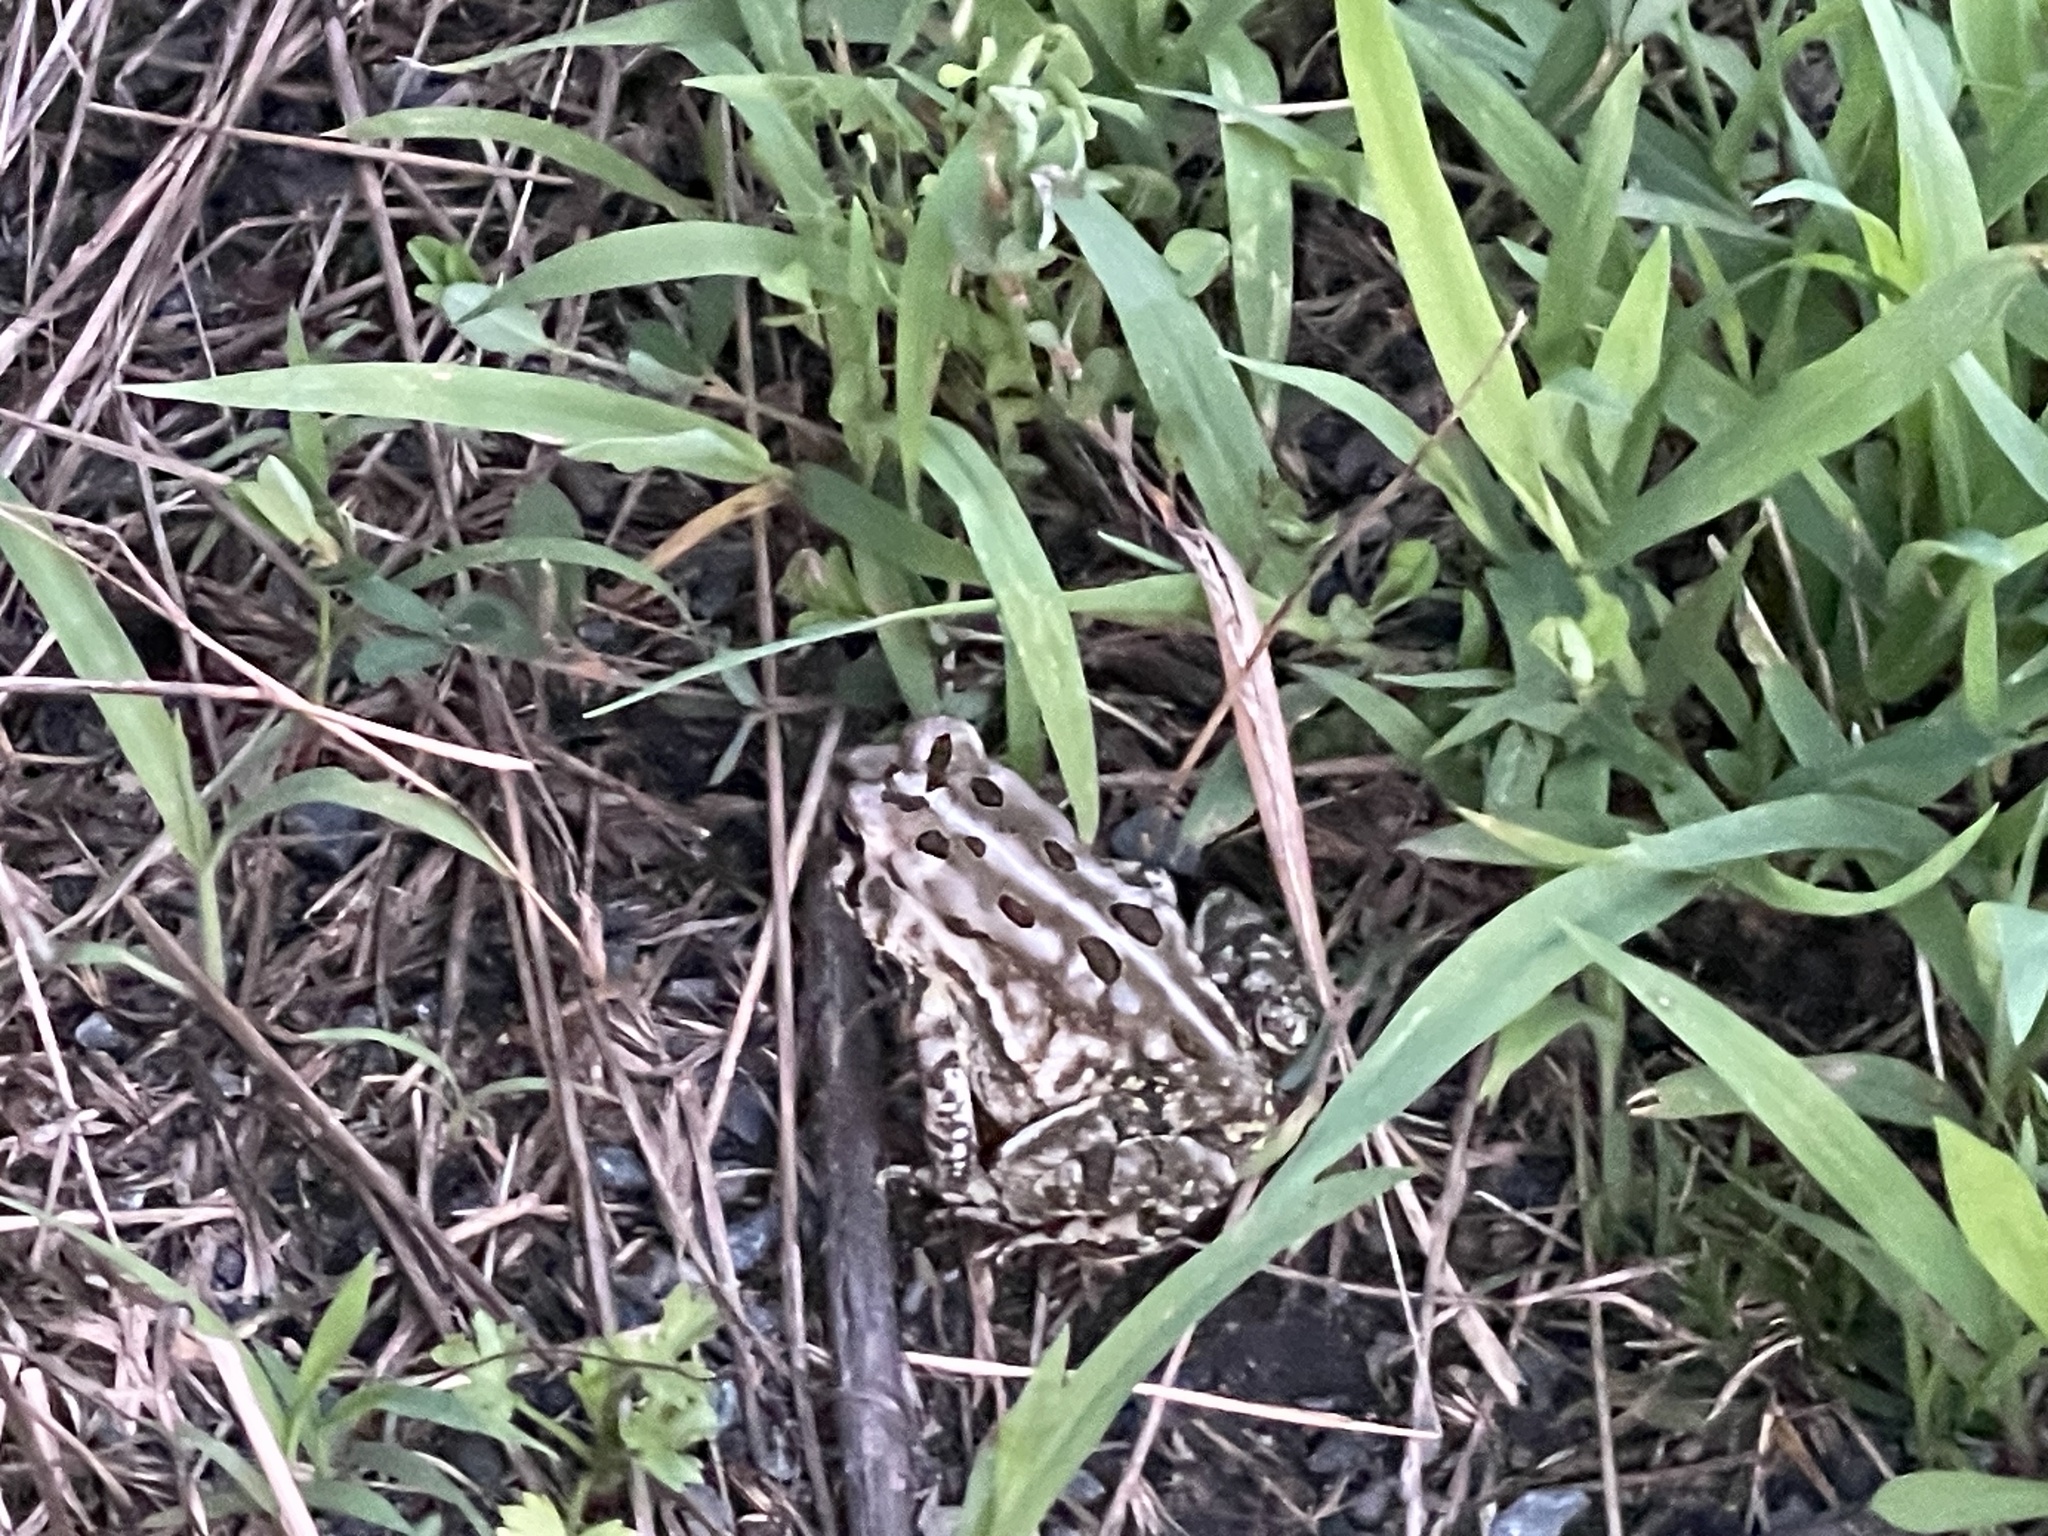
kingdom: Animalia
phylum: Chordata
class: Amphibia
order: Anura
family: Bufonidae
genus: Anaxyrus
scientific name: Anaxyrus fowleri
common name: Fowler's toad
